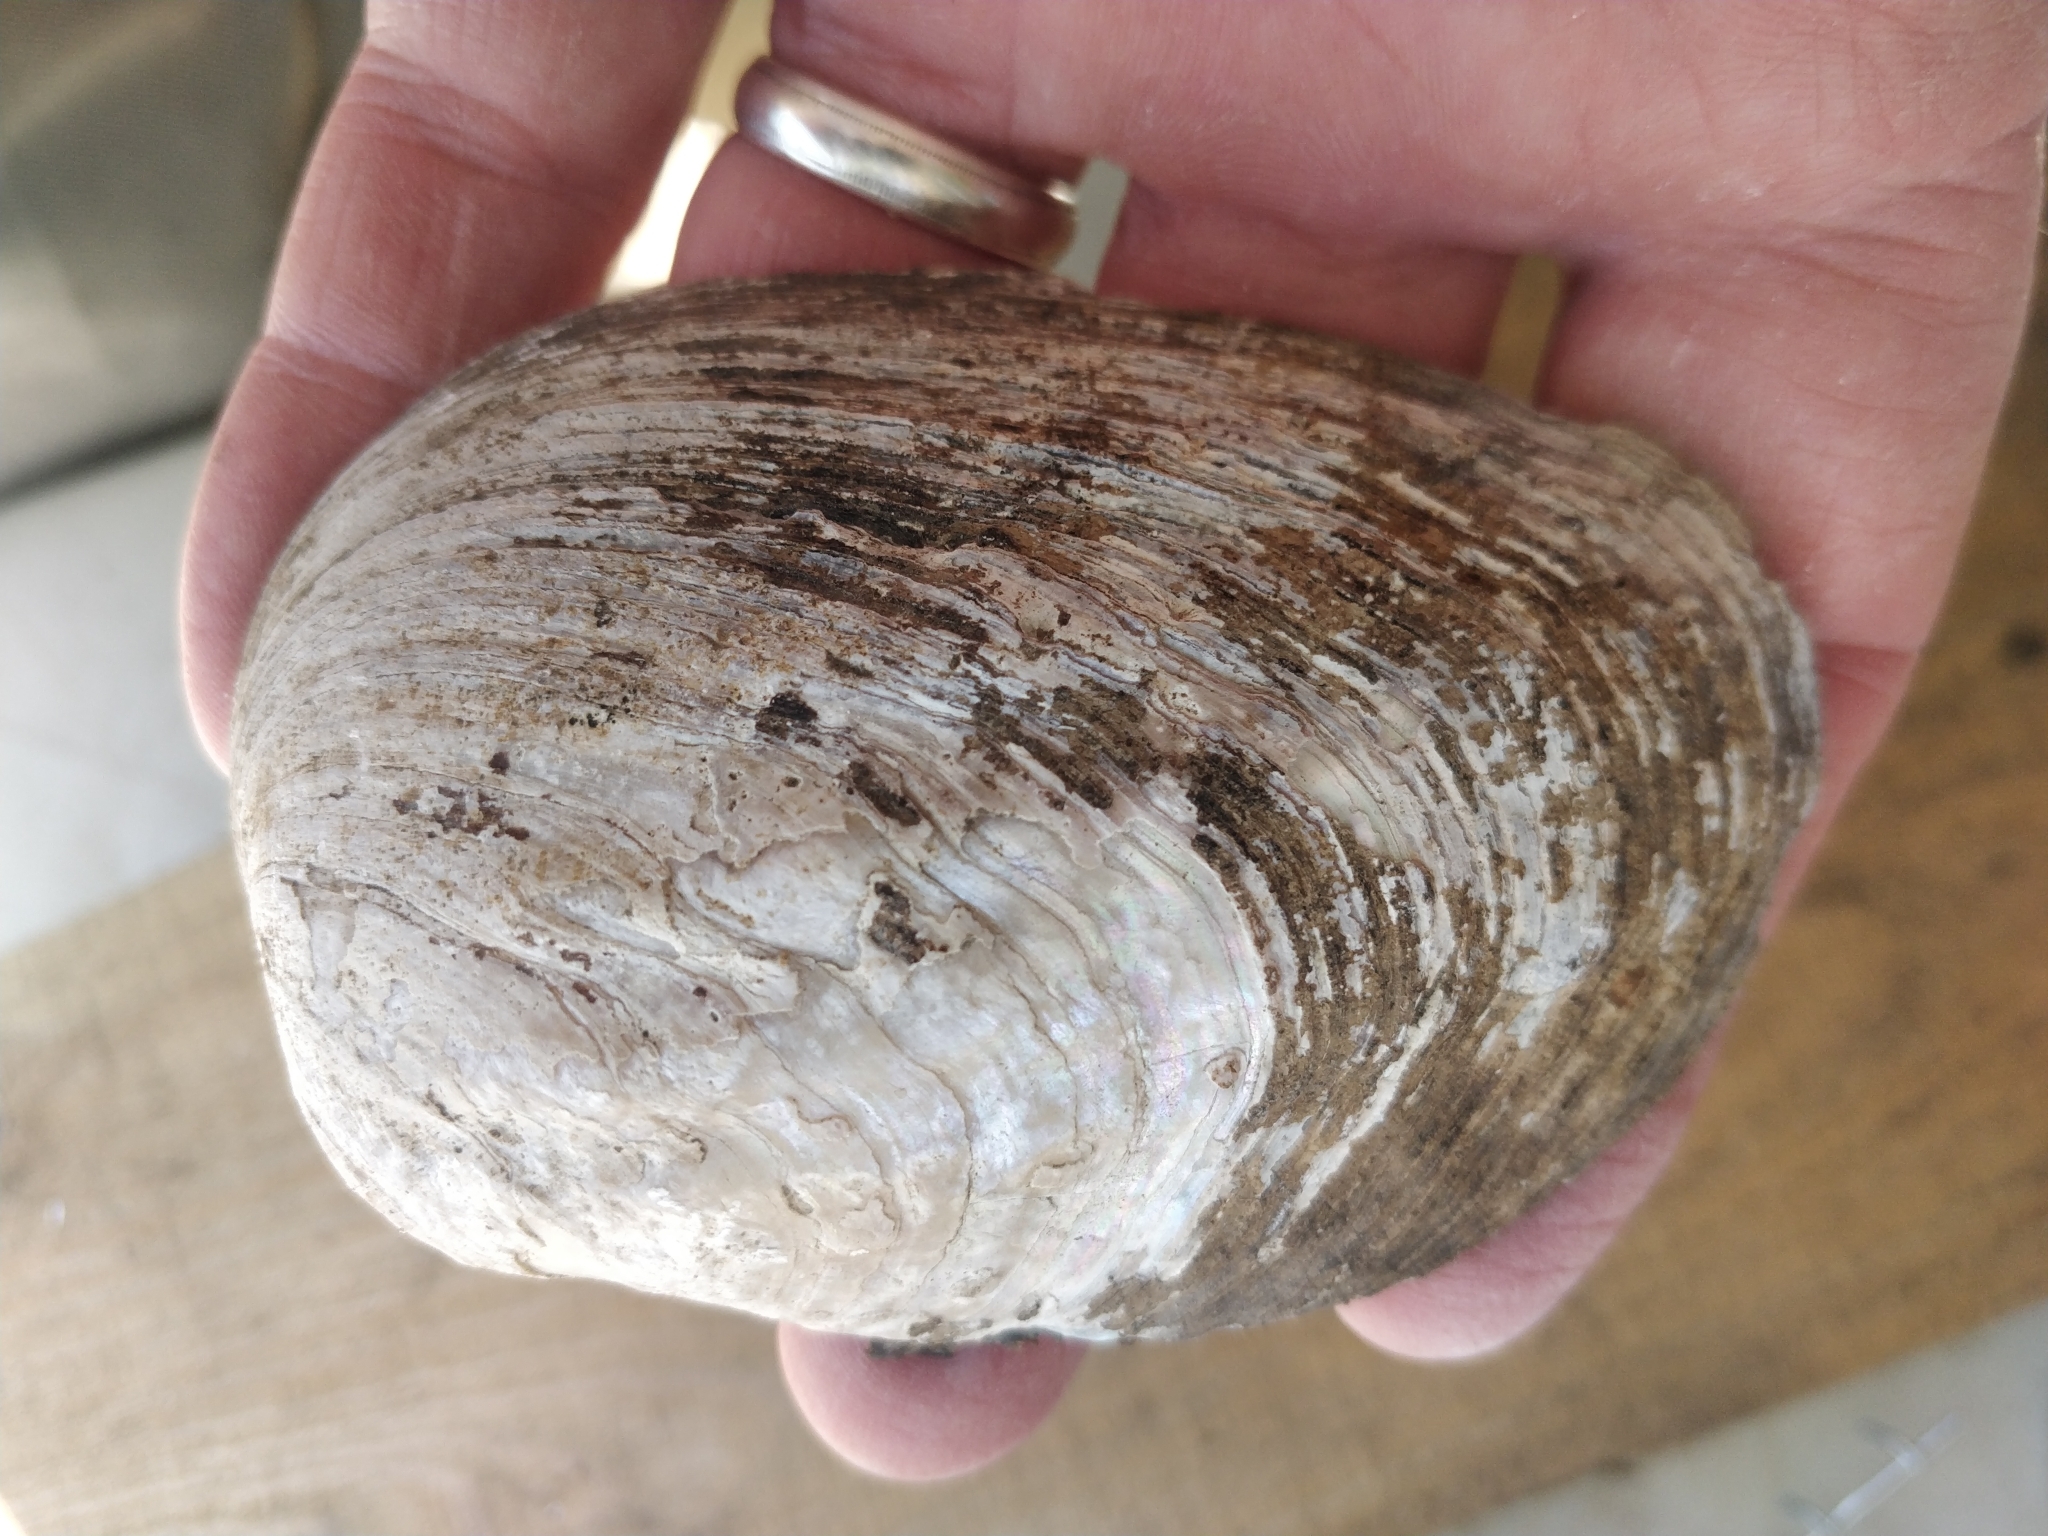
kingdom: Animalia
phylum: Mollusca
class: Bivalvia
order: Unionida
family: Unionidae
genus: Amblema
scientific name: Amblema plicata
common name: Threeridge
